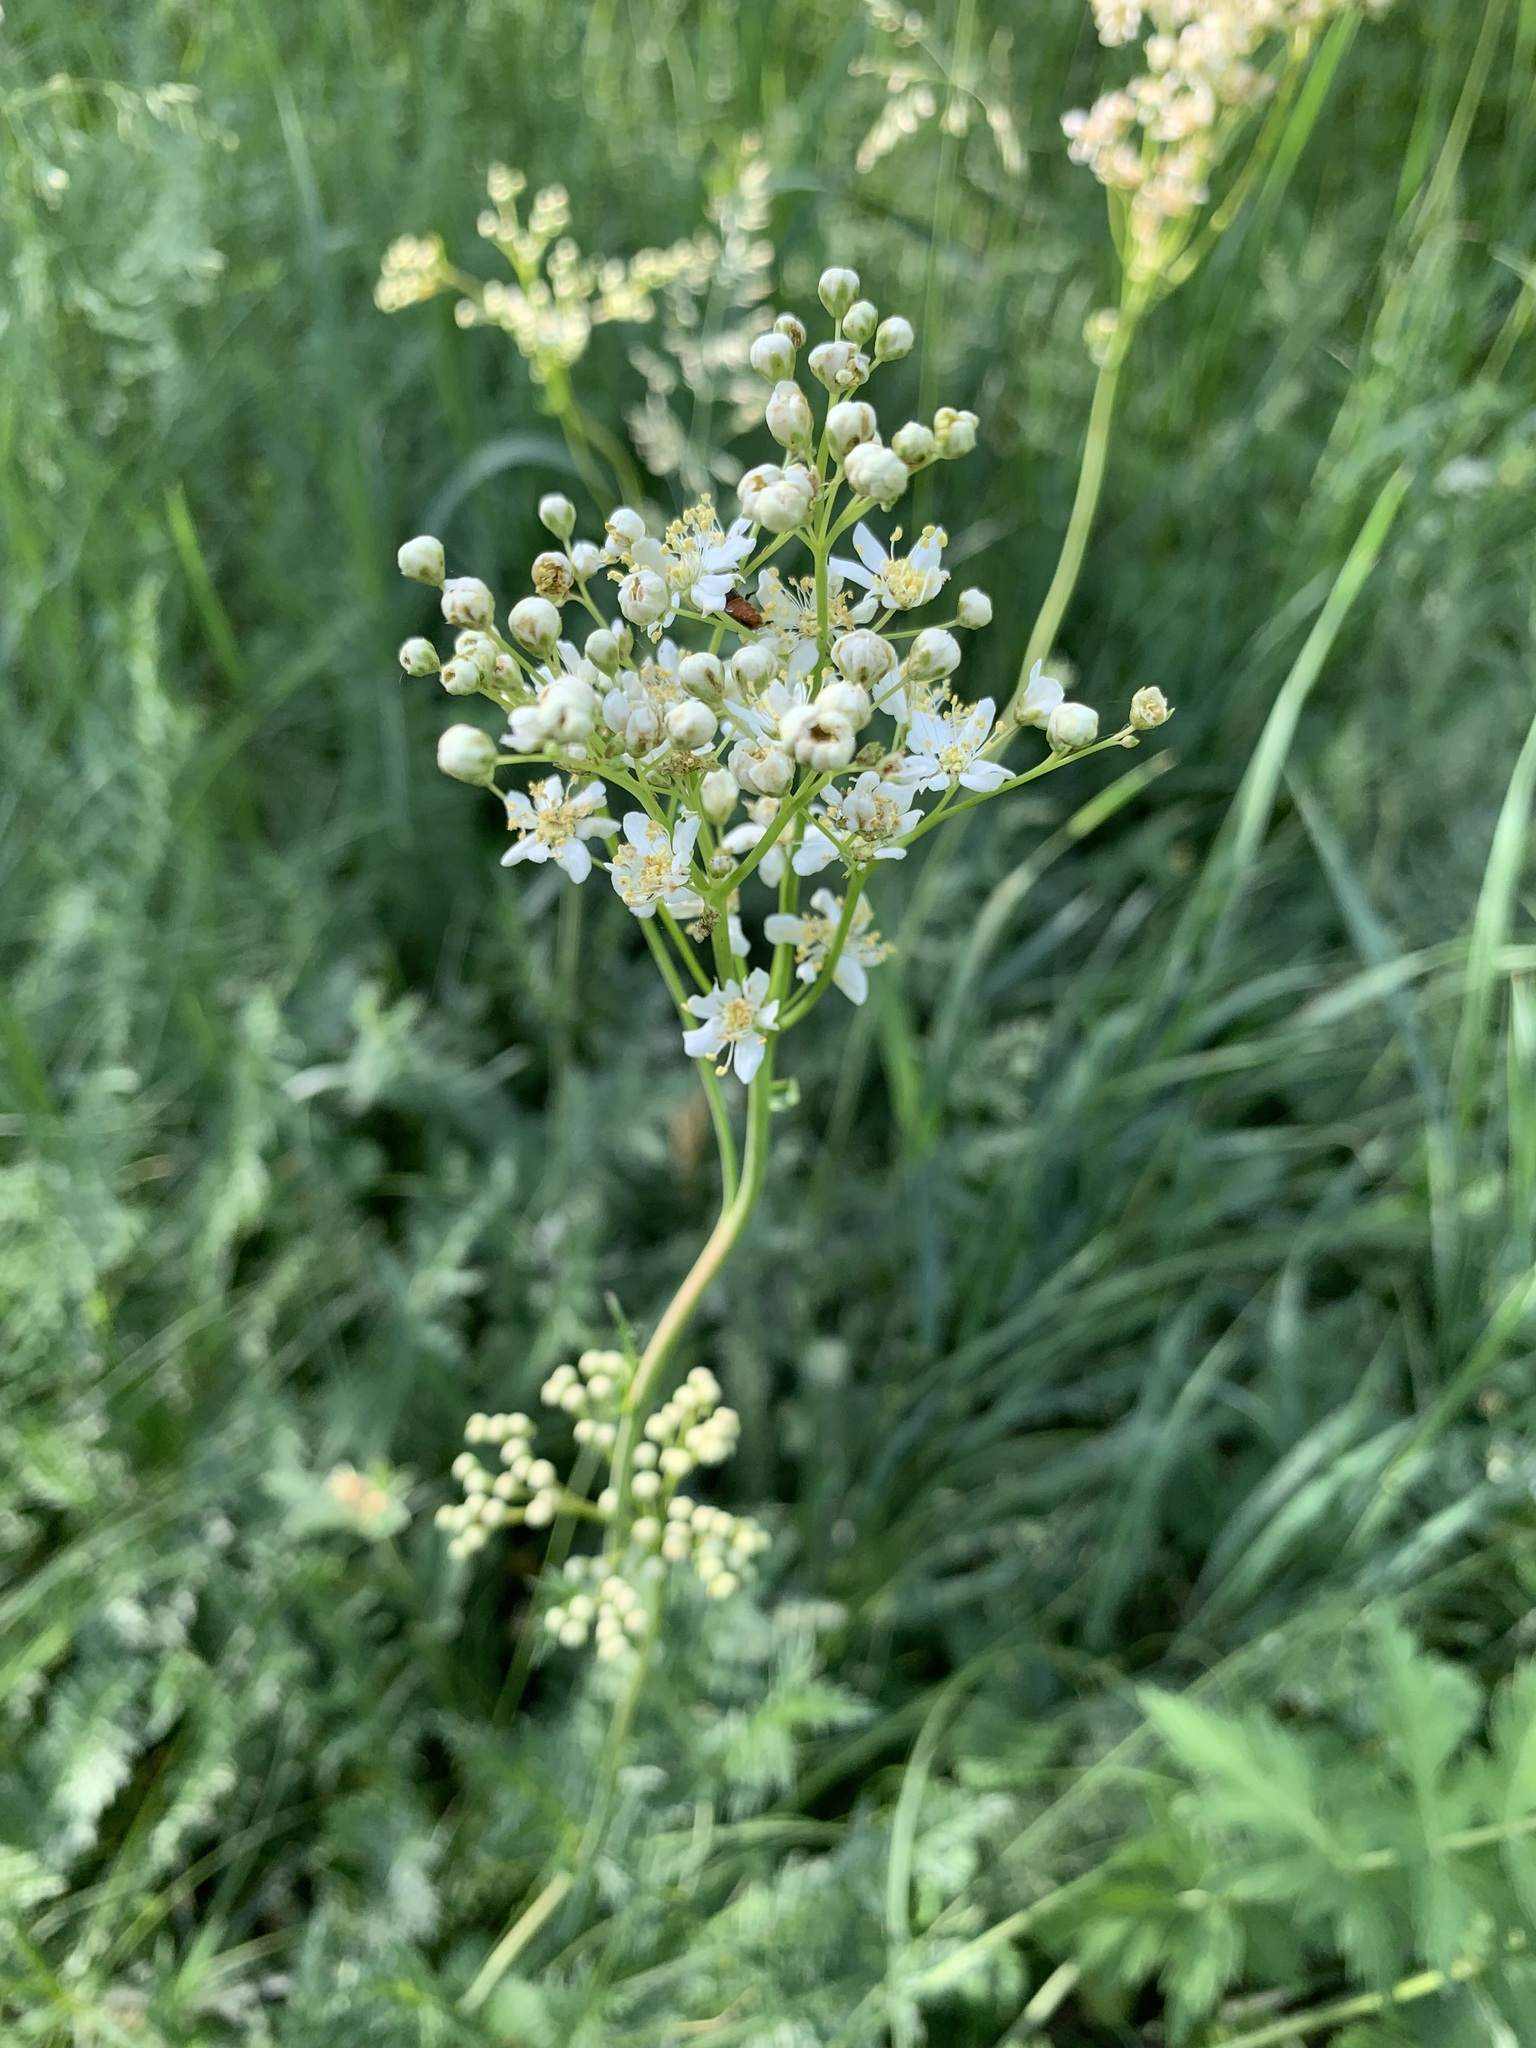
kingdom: Plantae
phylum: Tracheophyta
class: Magnoliopsida
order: Rosales
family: Rosaceae
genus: Filipendula
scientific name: Filipendula vulgaris
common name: Dropwort
